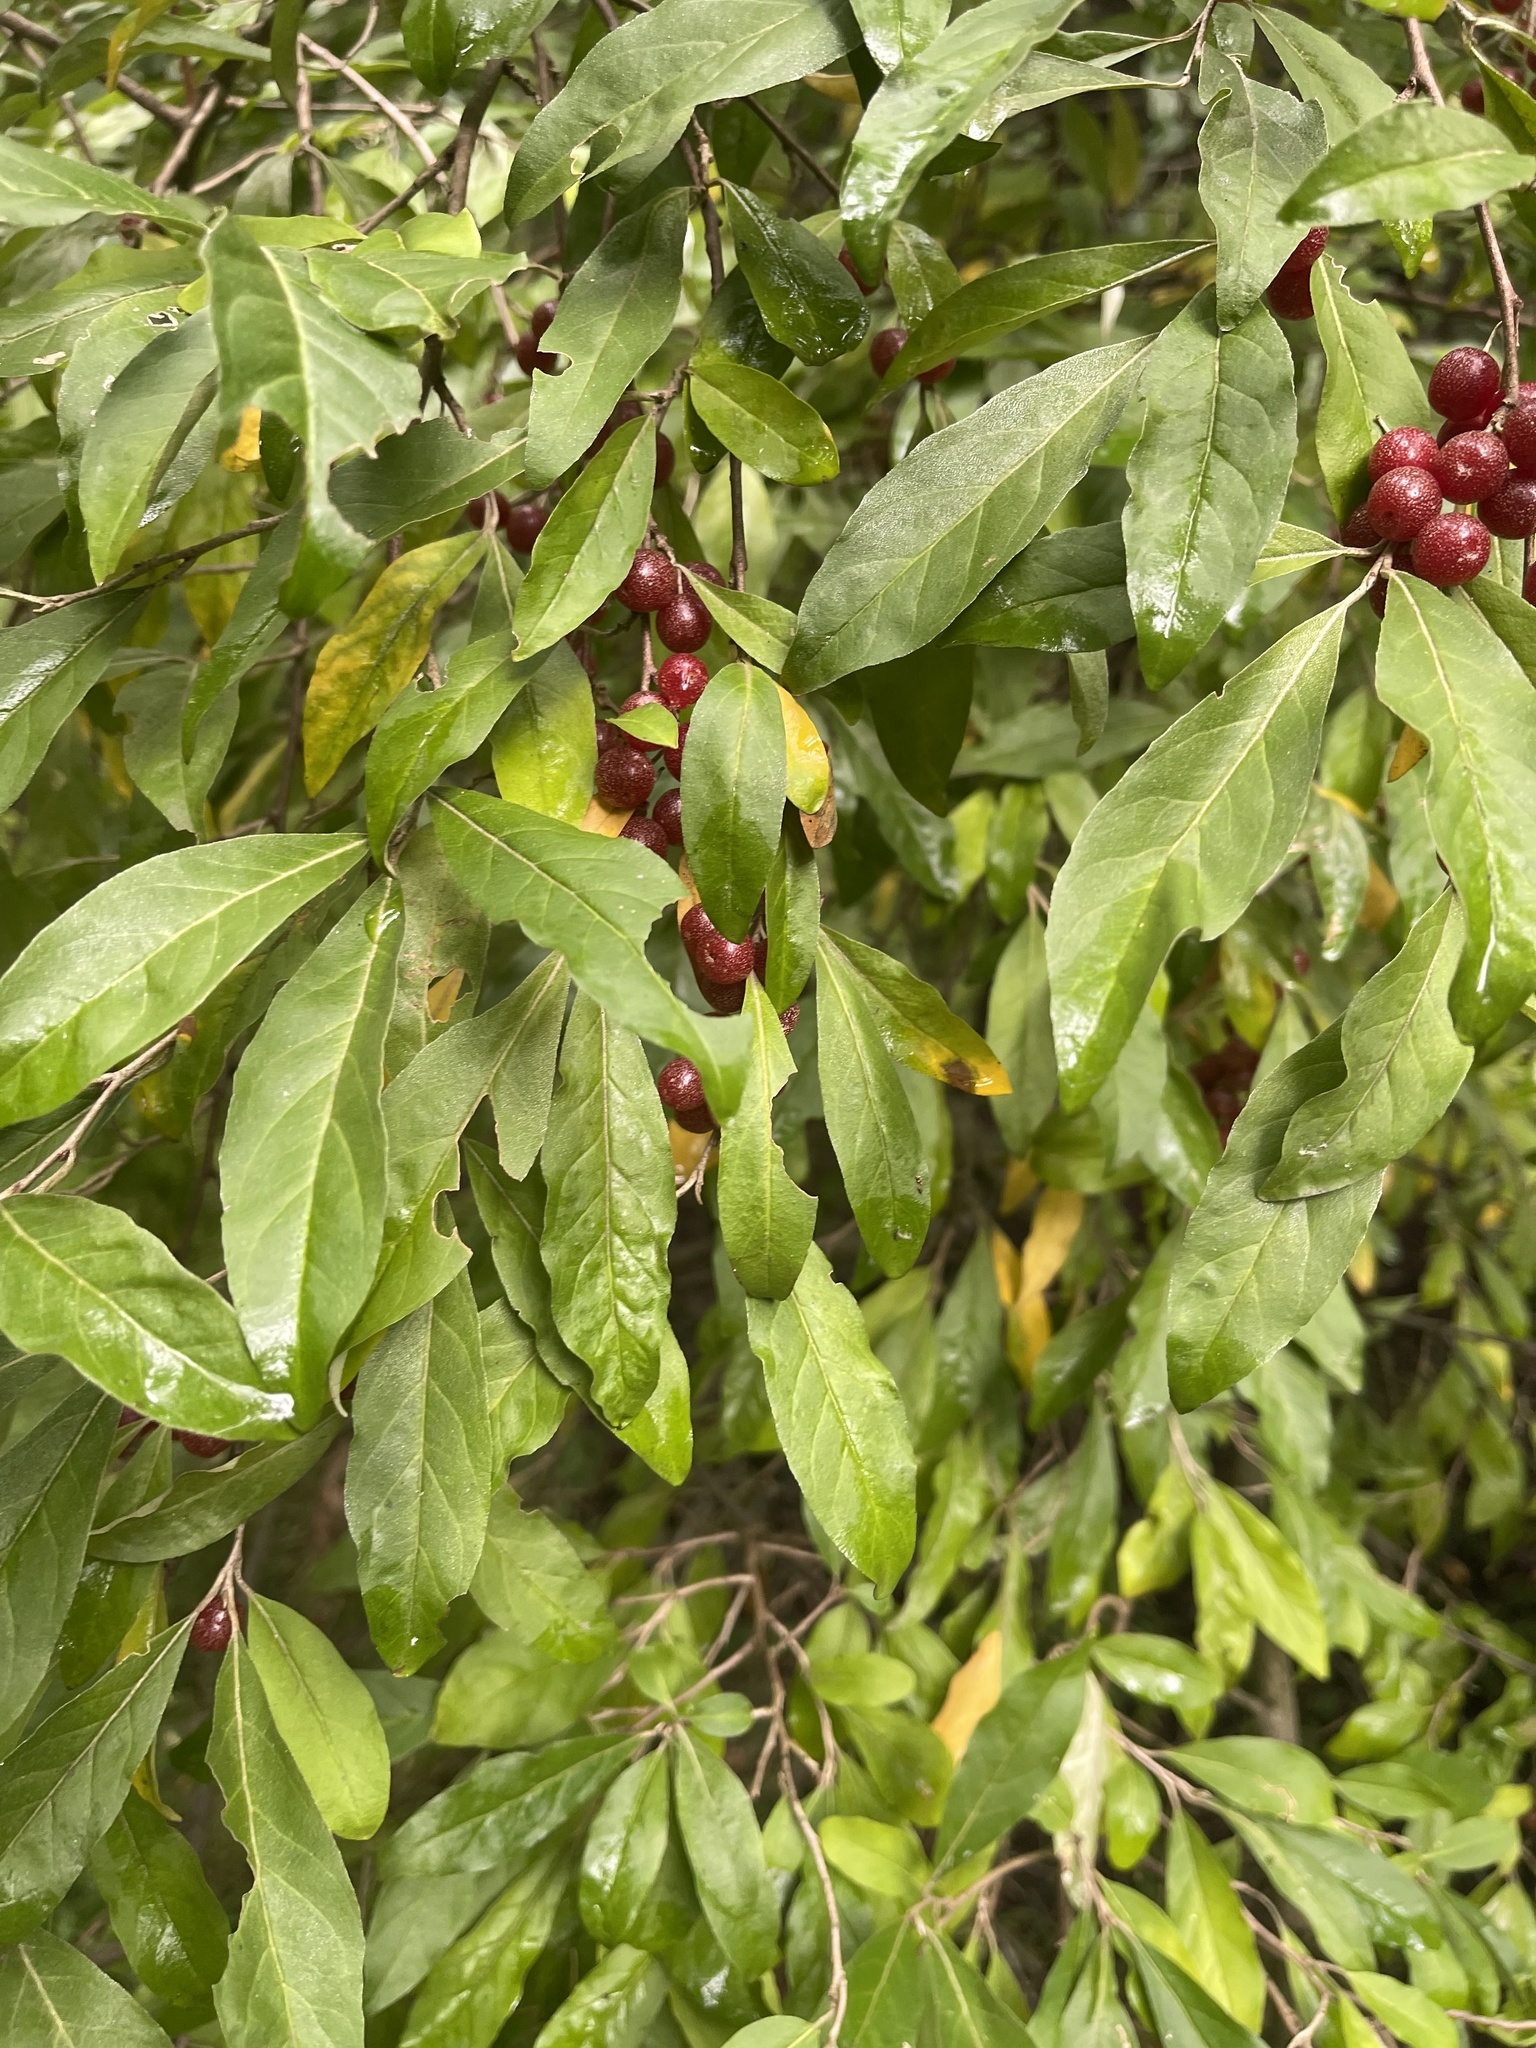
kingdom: Plantae
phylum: Tracheophyta
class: Magnoliopsida
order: Rosales
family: Elaeagnaceae
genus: Elaeagnus
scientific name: Elaeagnus umbellata
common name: Autumn olive
